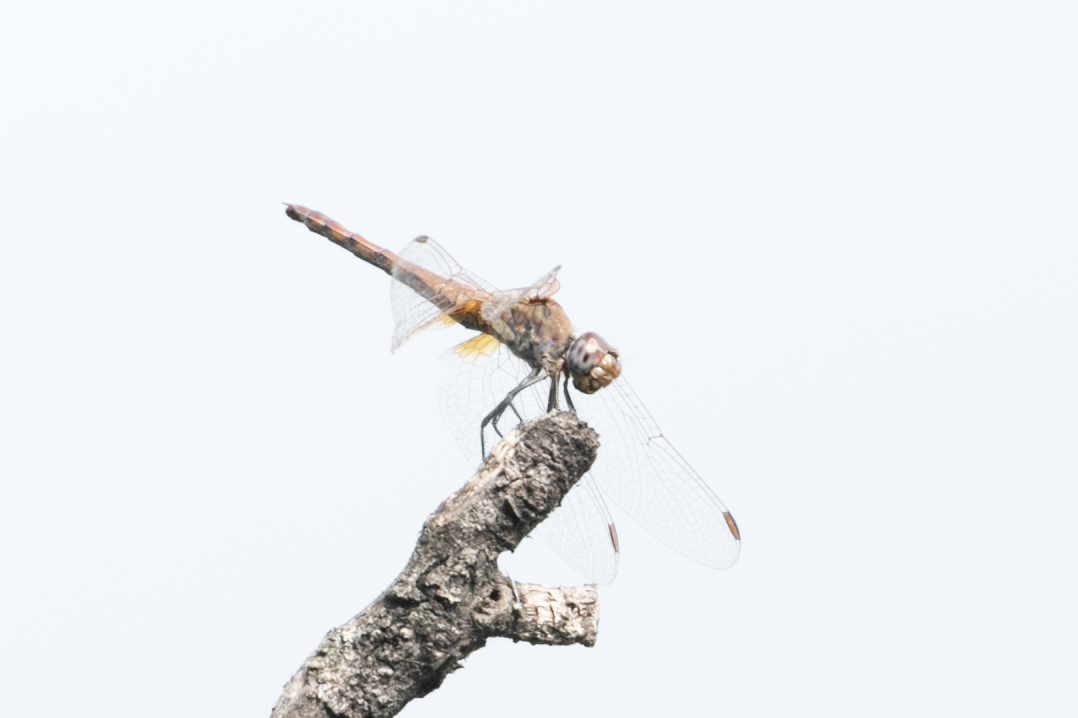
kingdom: Animalia
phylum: Arthropoda
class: Insecta
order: Odonata
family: Libellulidae
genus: Trithemis
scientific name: Trithemis annulata
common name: Violet dropwing
